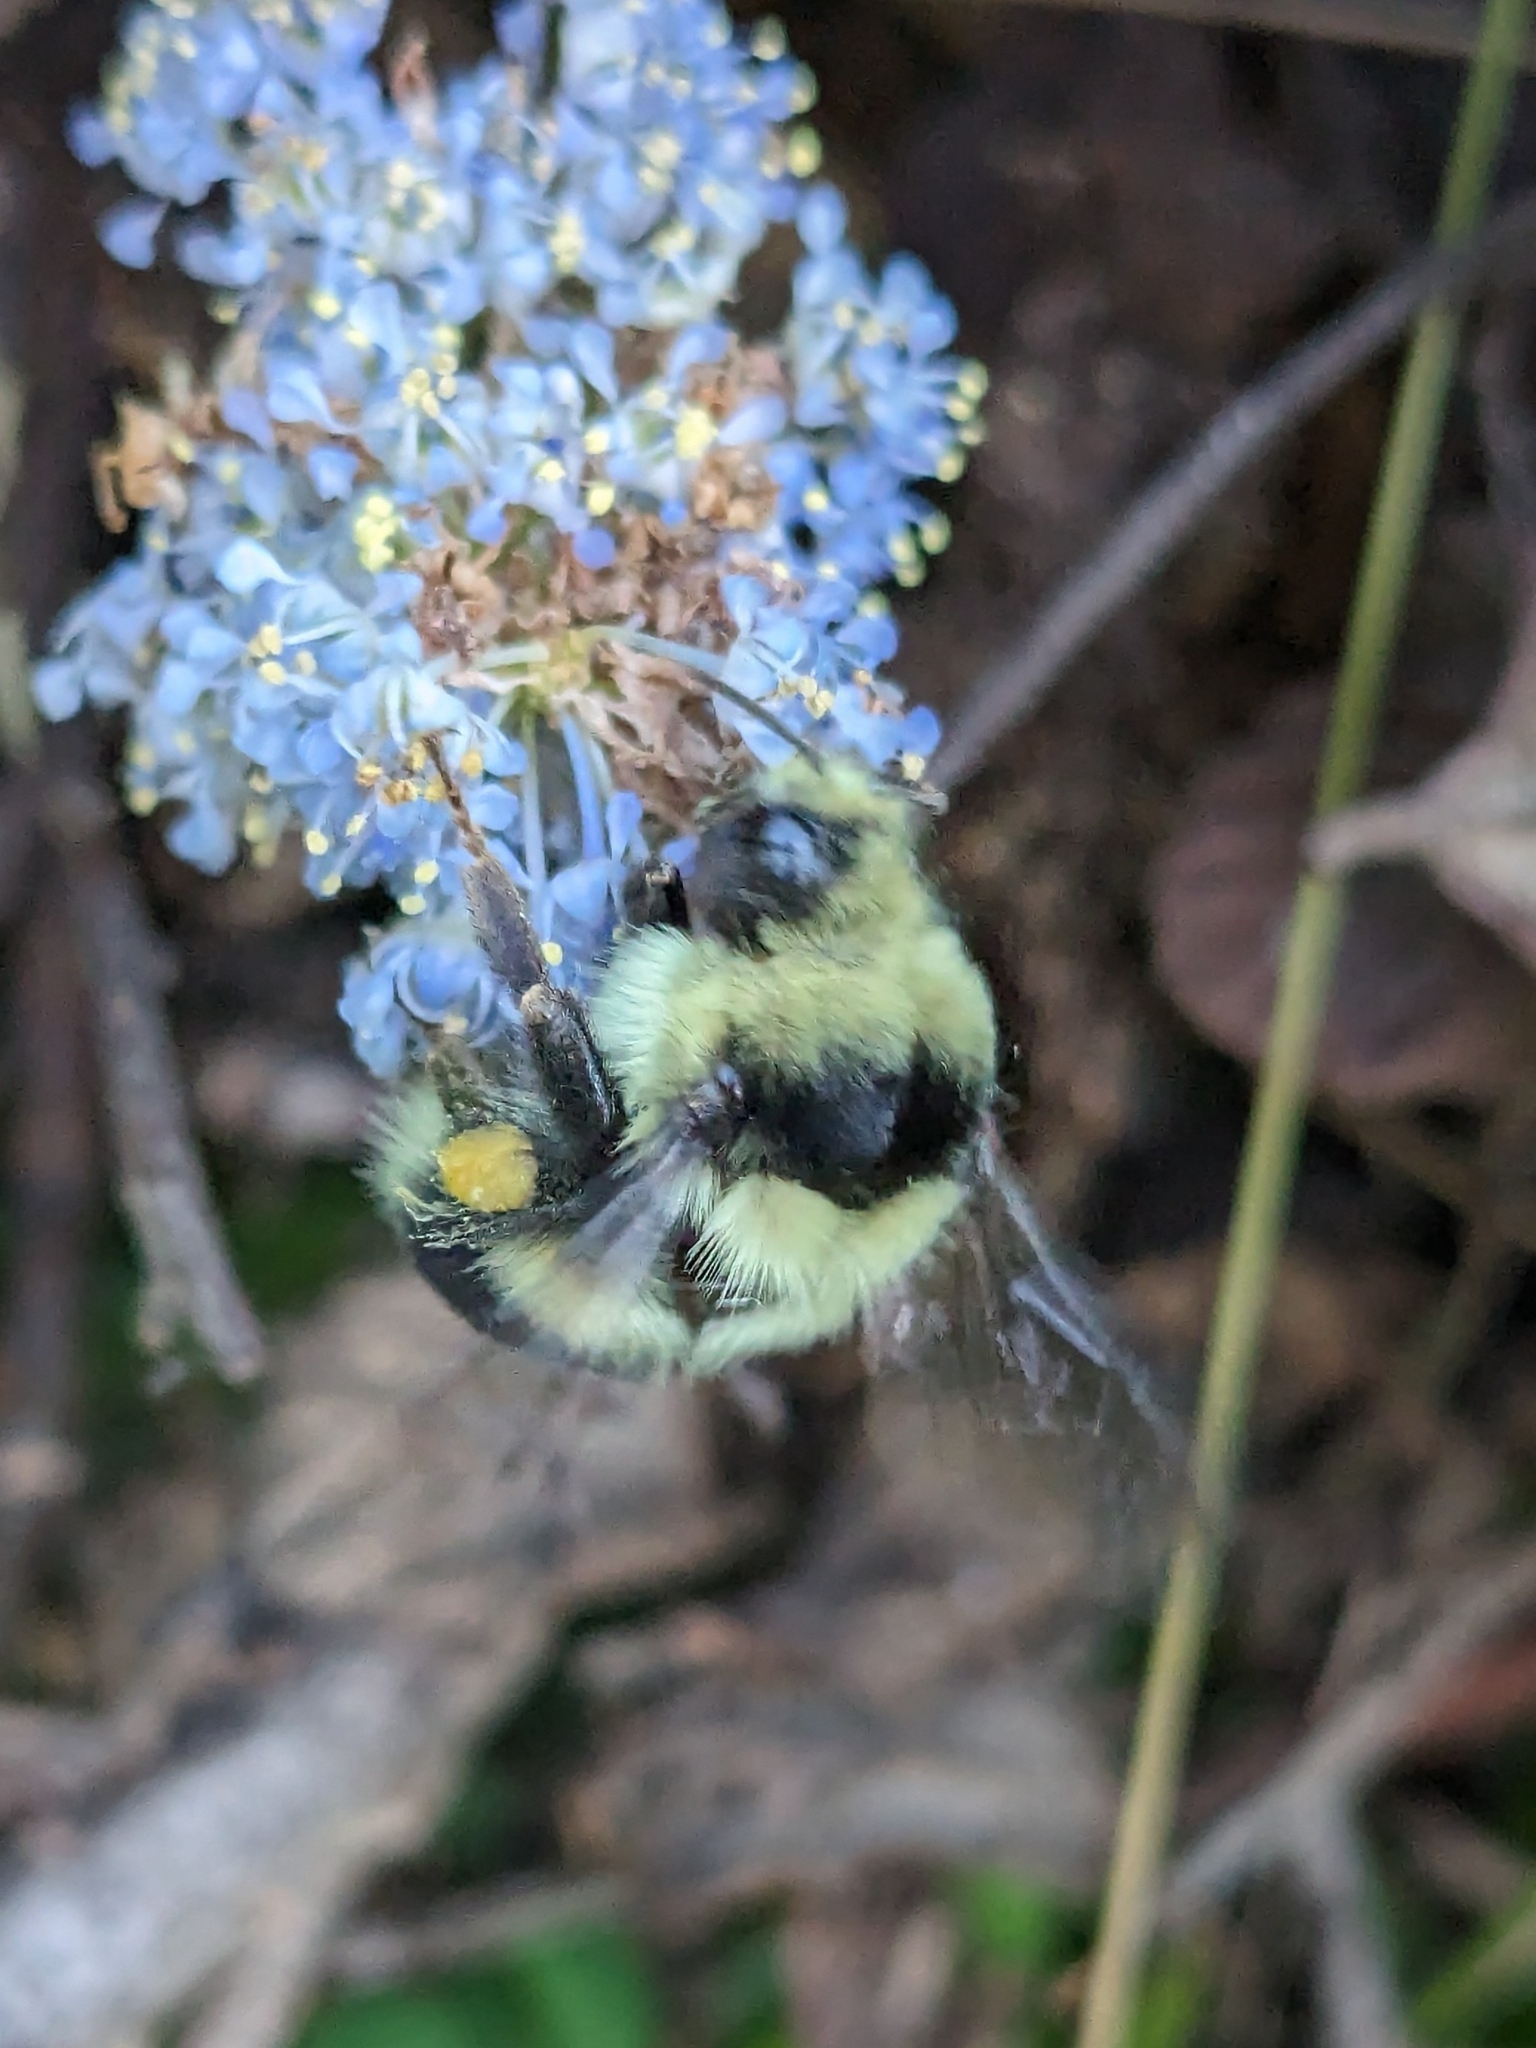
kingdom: Animalia
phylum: Arthropoda
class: Insecta
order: Hymenoptera
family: Apidae
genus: Bombus
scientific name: Bombus melanopygus
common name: Black tail bumble bee
